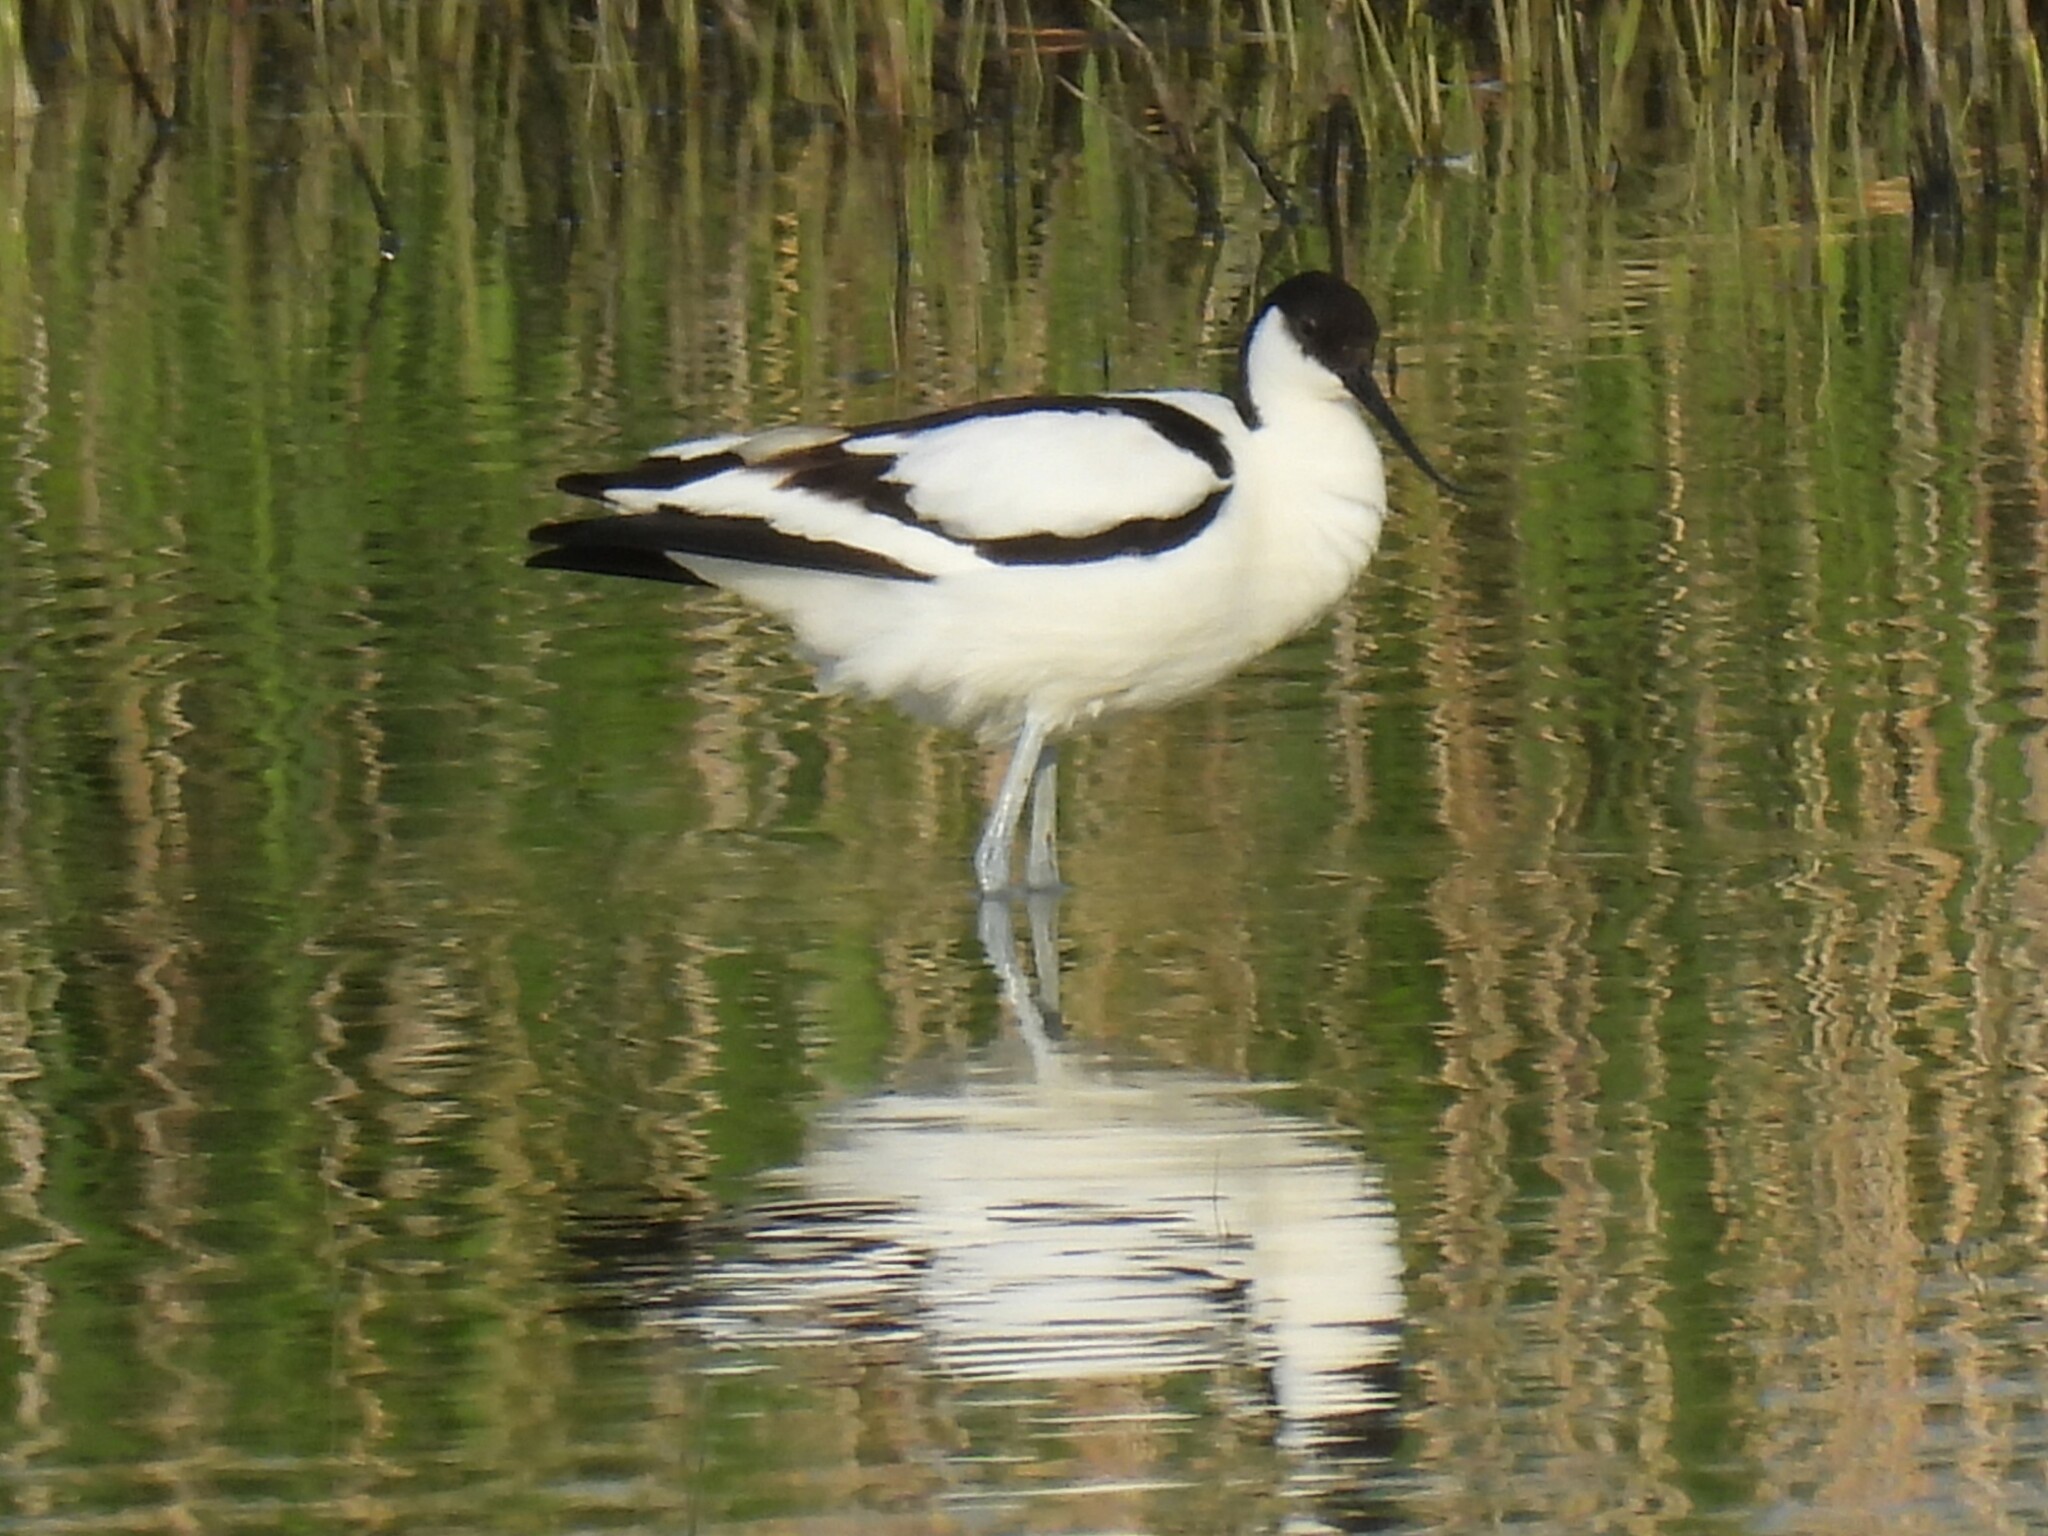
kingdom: Animalia
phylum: Chordata
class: Aves
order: Charadriiformes
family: Recurvirostridae
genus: Recurvirostra
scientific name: Recurvirostra avosetta
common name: Pied avocet
